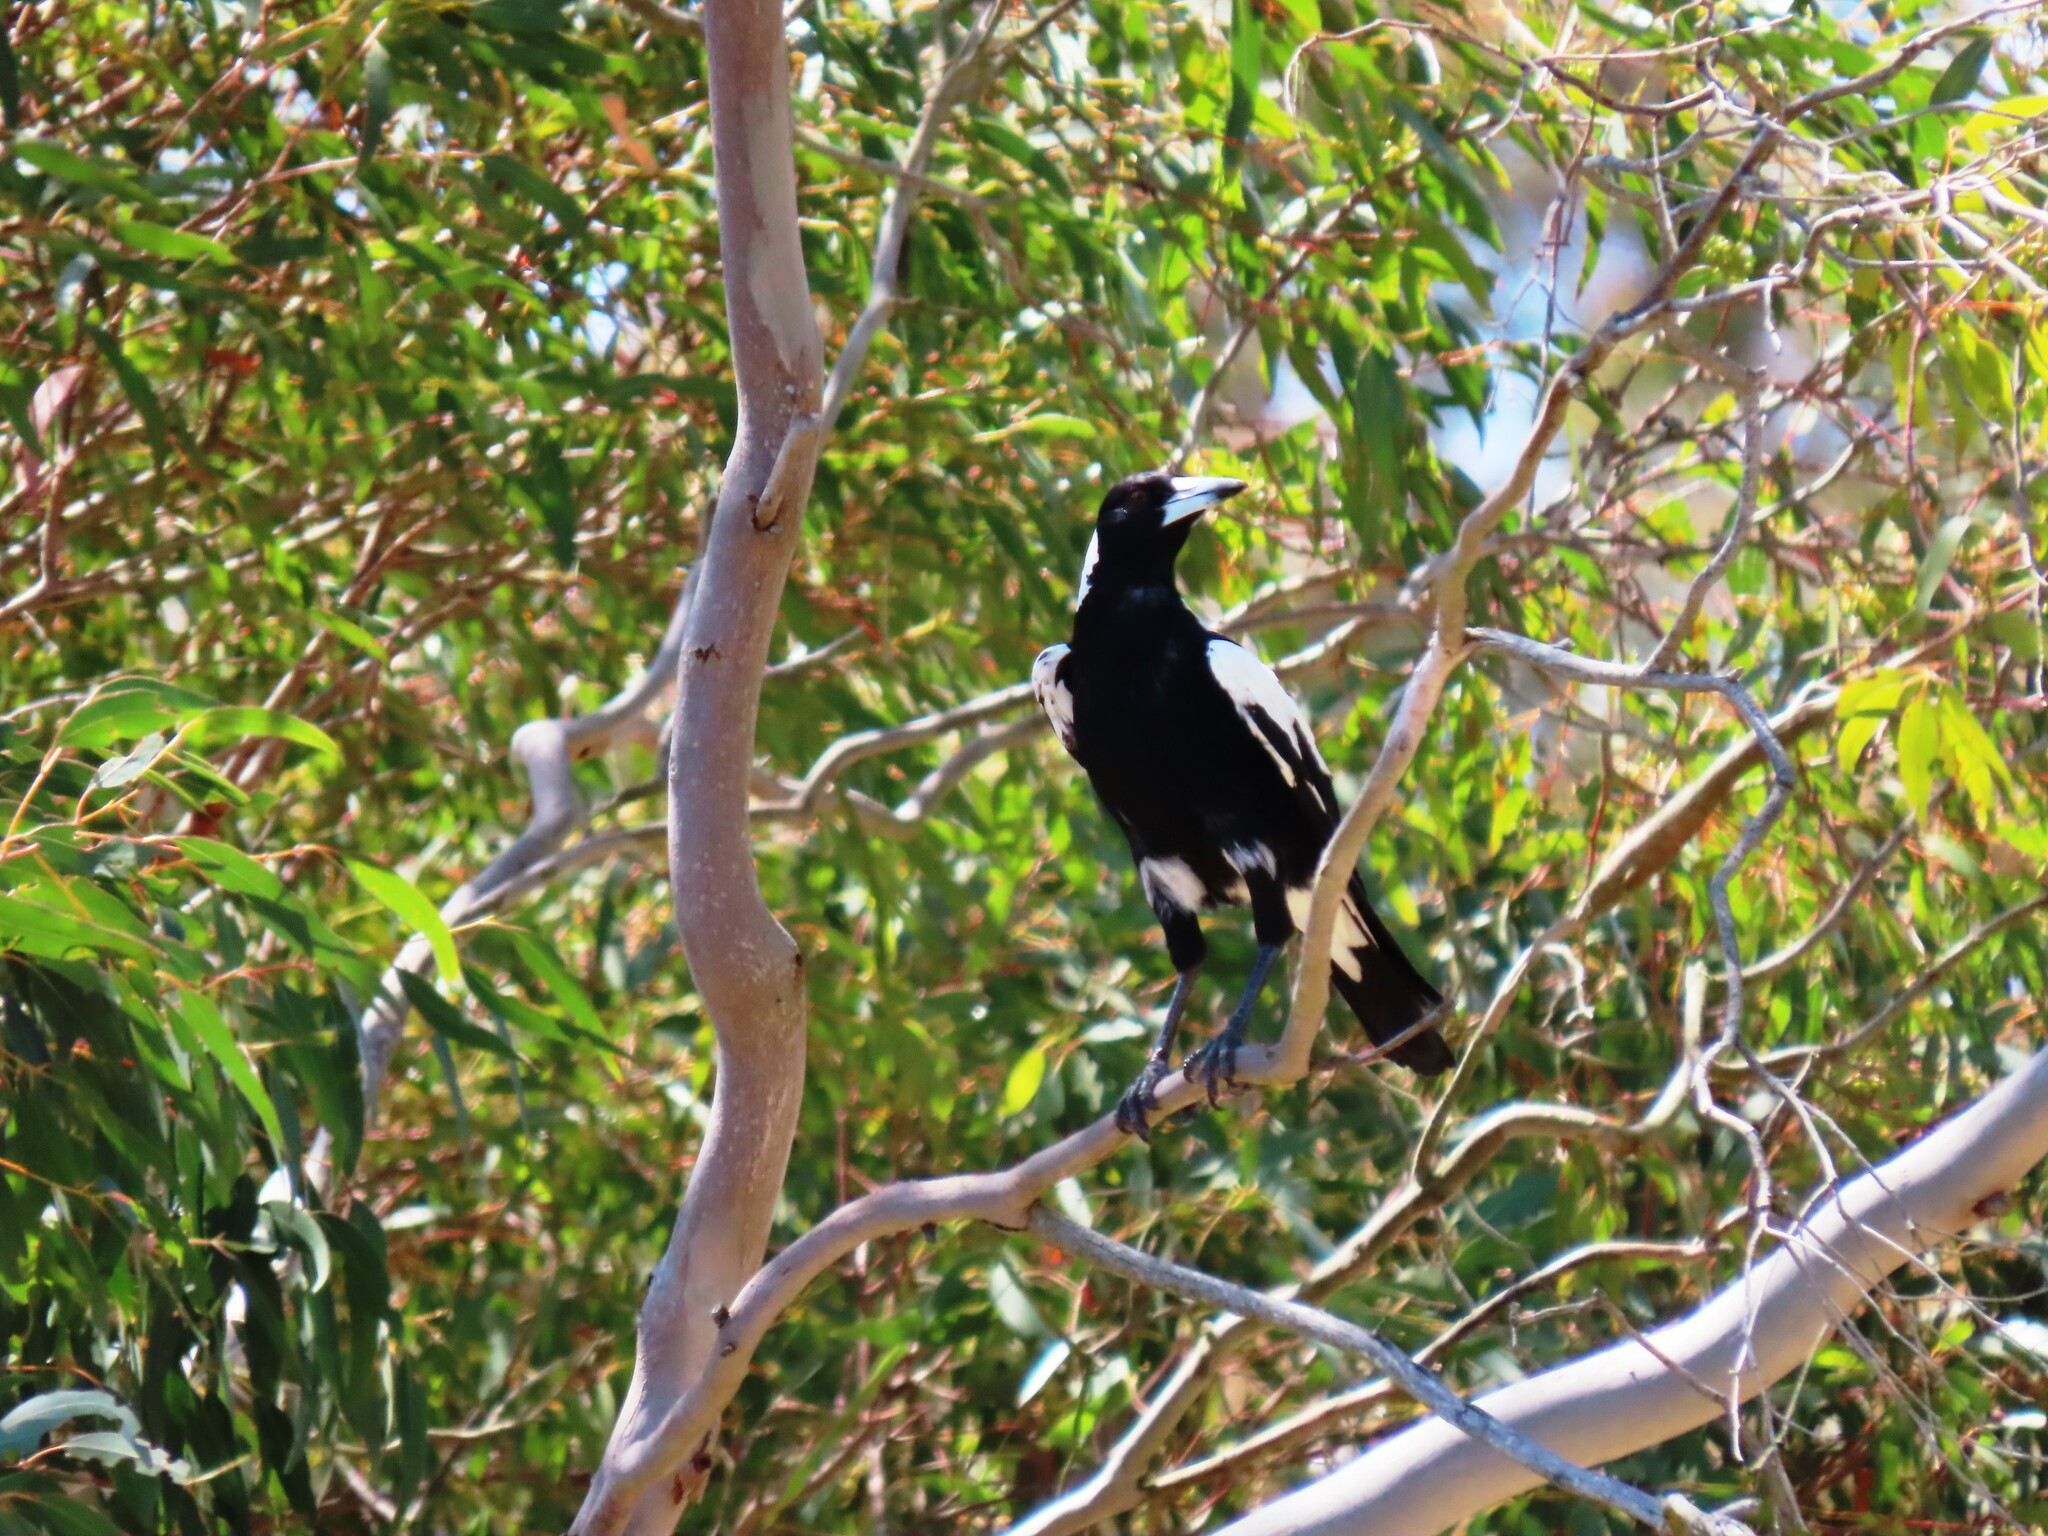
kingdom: Animalia
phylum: Chordata
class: Aves
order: Passeriformes
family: Cracticidae
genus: Gymnorhina
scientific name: Gymnorhina tibicen
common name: Australian magpie
